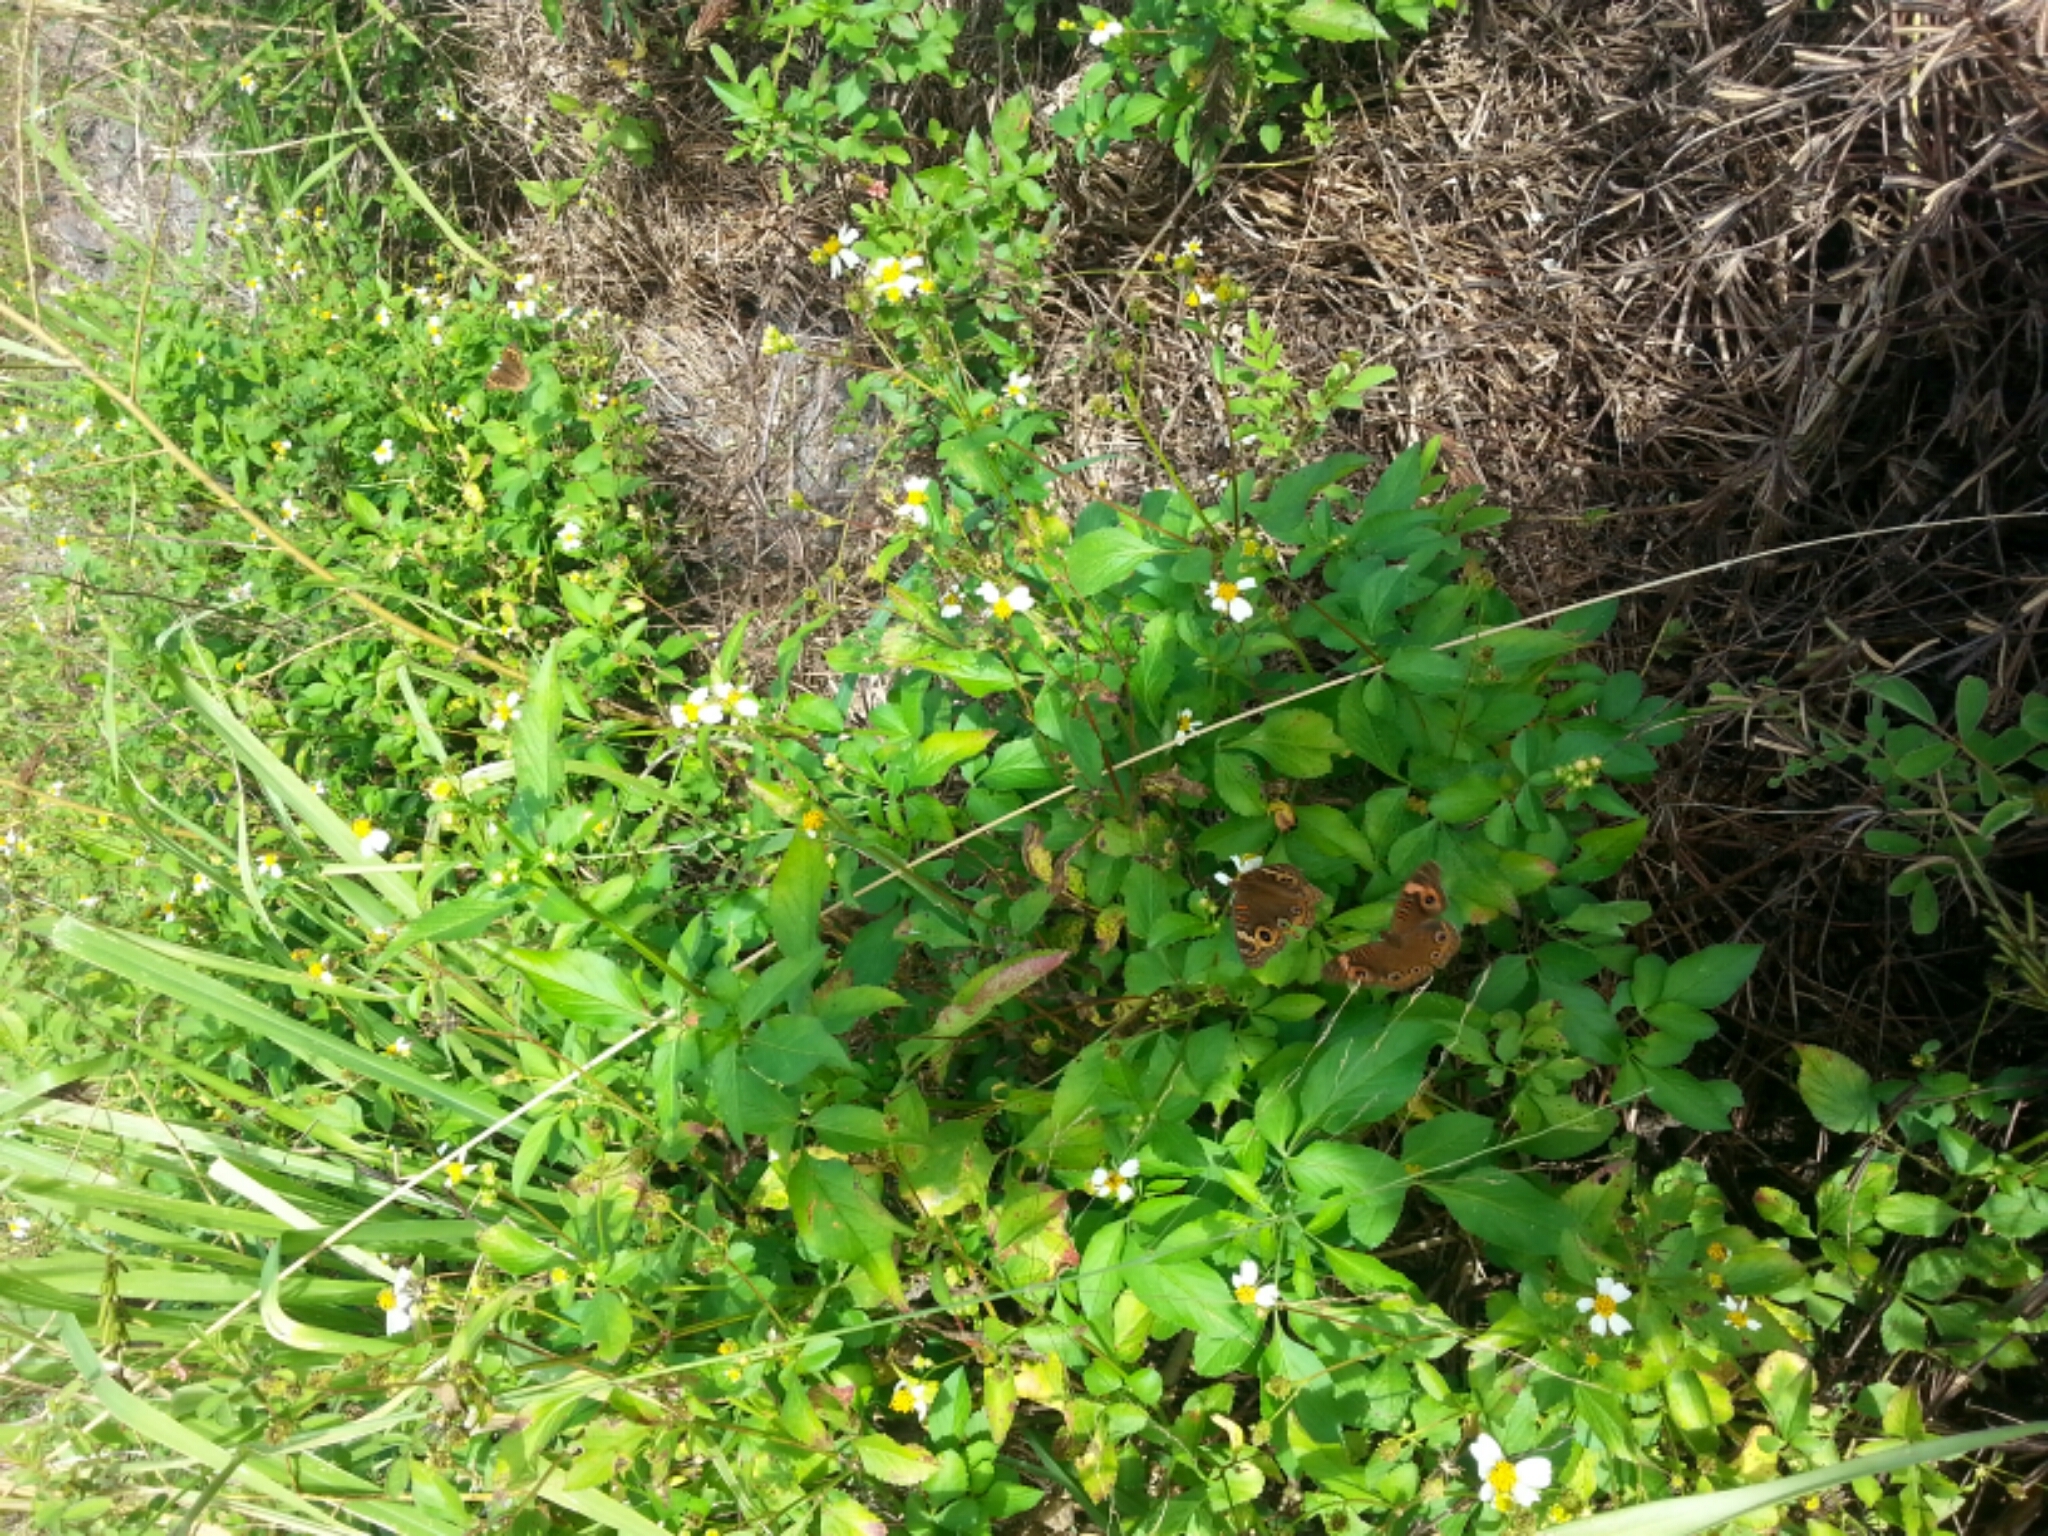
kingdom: Animalia
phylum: Arthropoda
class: Insecta
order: Lepidoptera
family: Nymphalidae
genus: Junonia
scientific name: Junonia coenia
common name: Common buckeye
